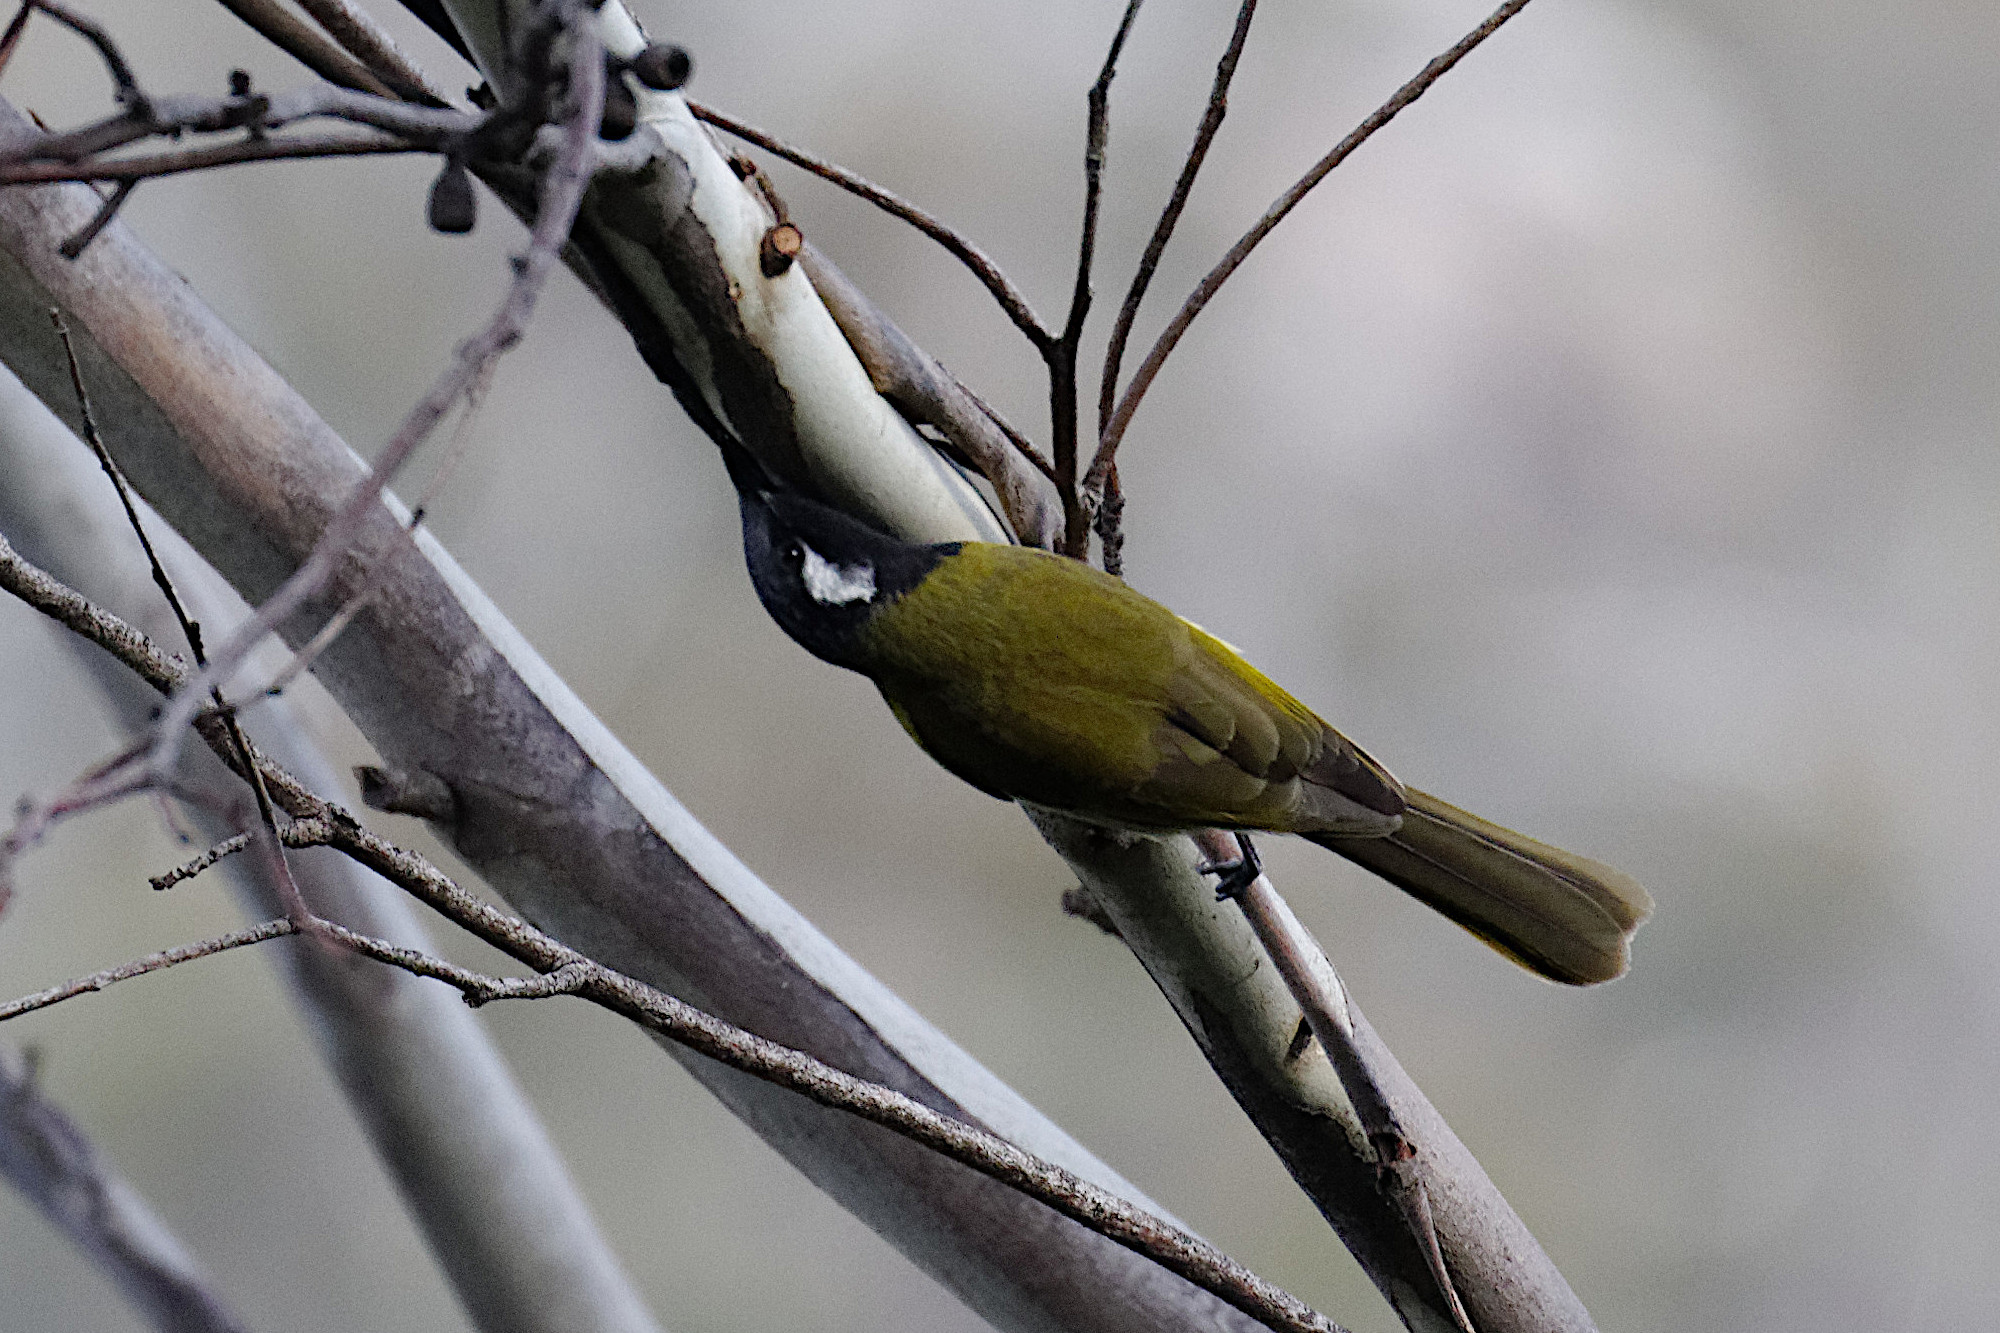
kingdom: Animalia
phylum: Chordata
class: Aves
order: Passeriformes
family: Meliphagidae
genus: Nesoptilotis
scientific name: Nesoptilotis leucotis
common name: White-eared honeyeater
